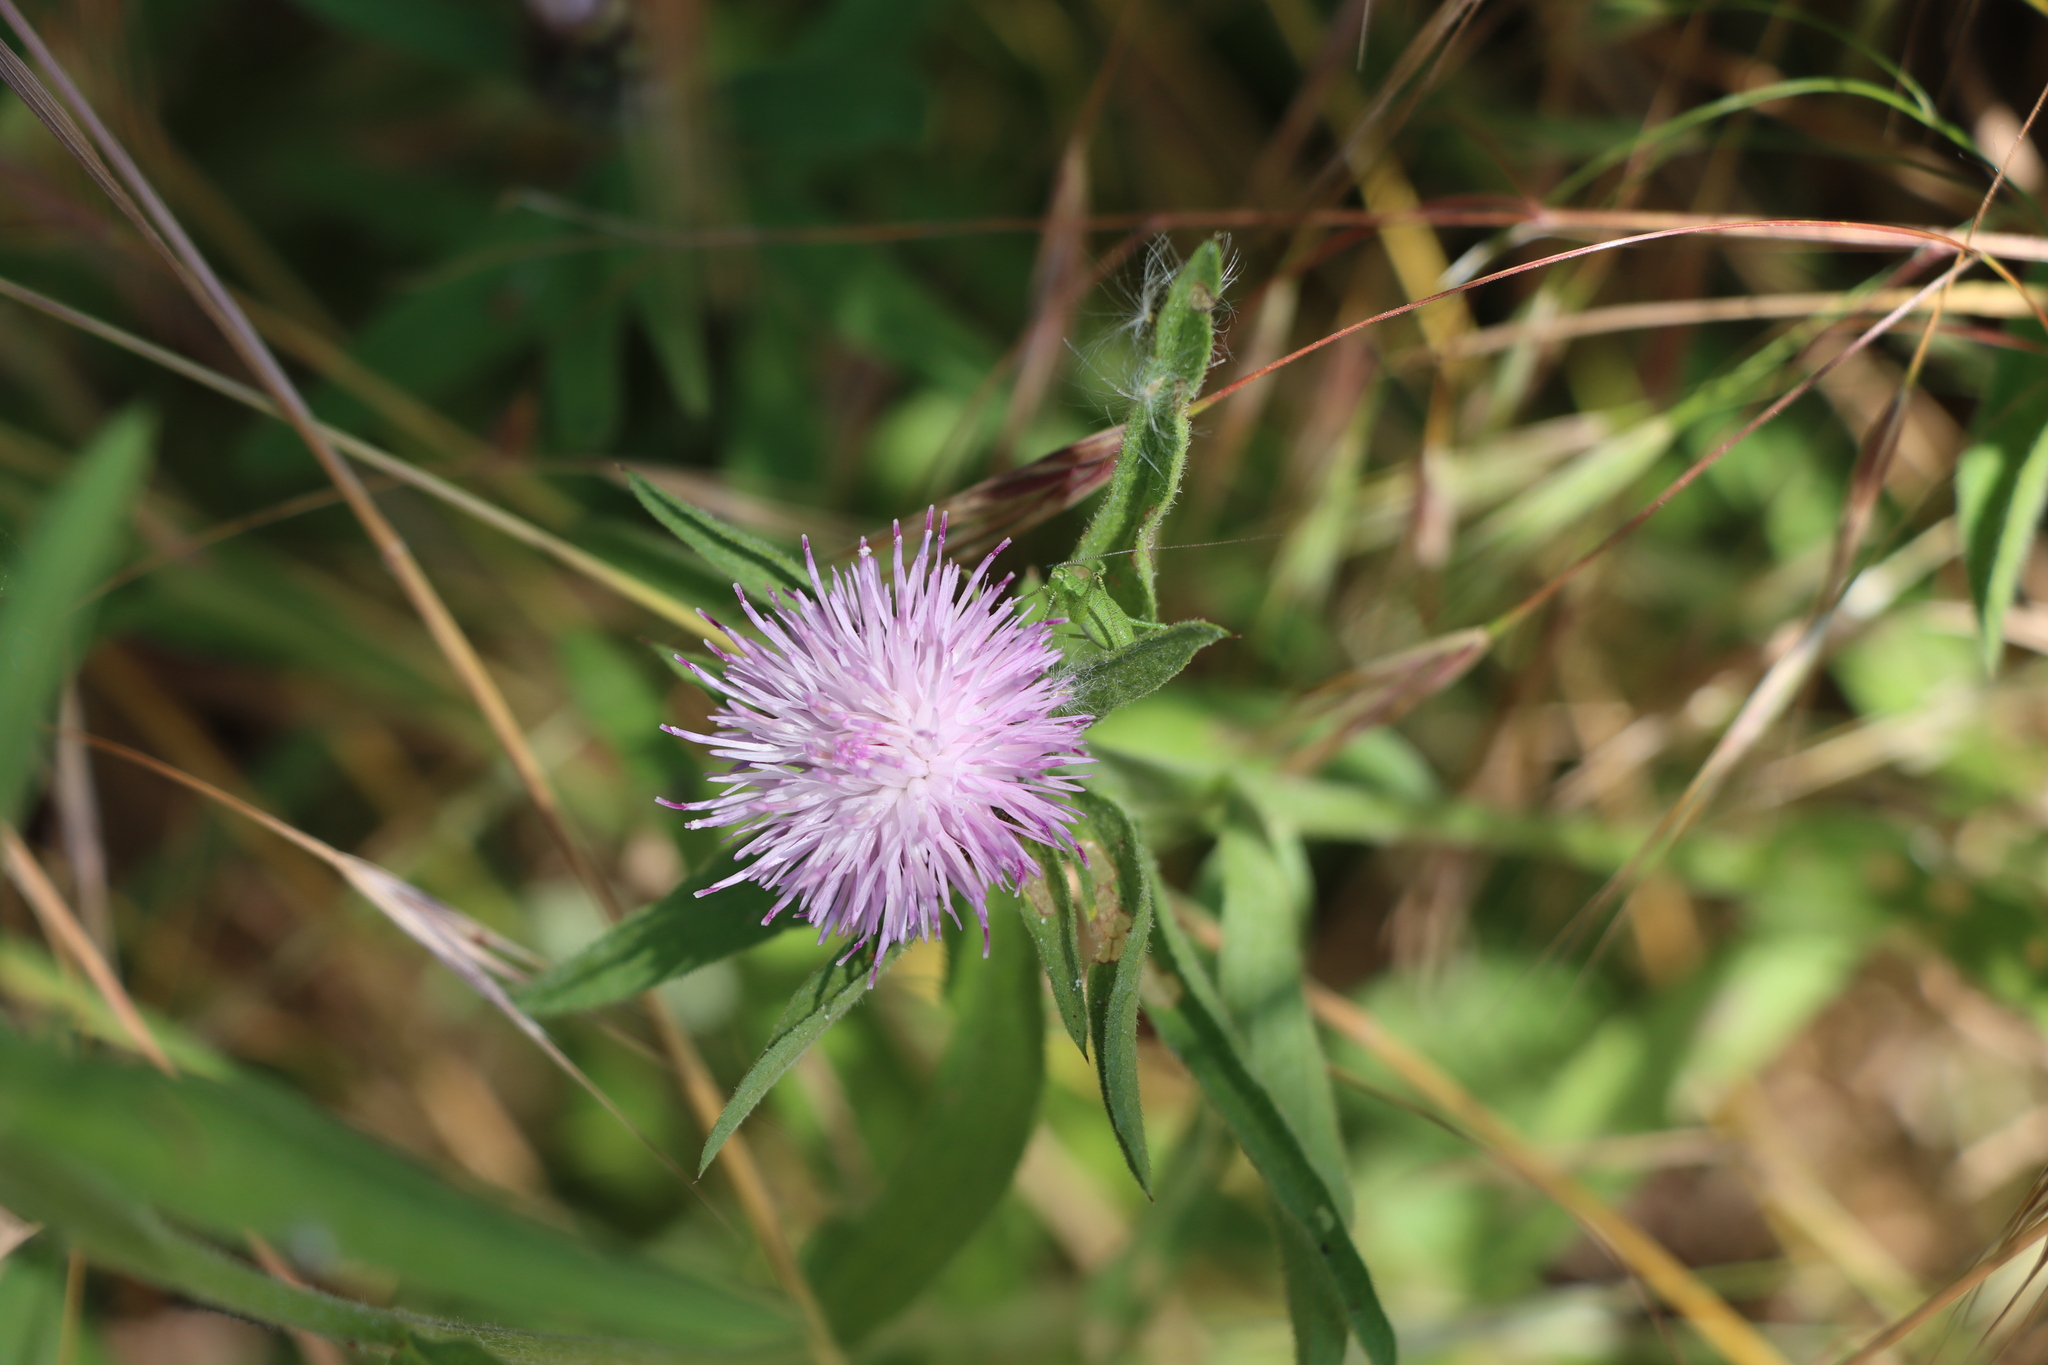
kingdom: Plantae
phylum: Tracheophyta
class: Magnoliopsida
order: Asterales
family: Asteraceae
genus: Centaurea
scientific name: Centaurea nigra
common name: Lesser knapweed
